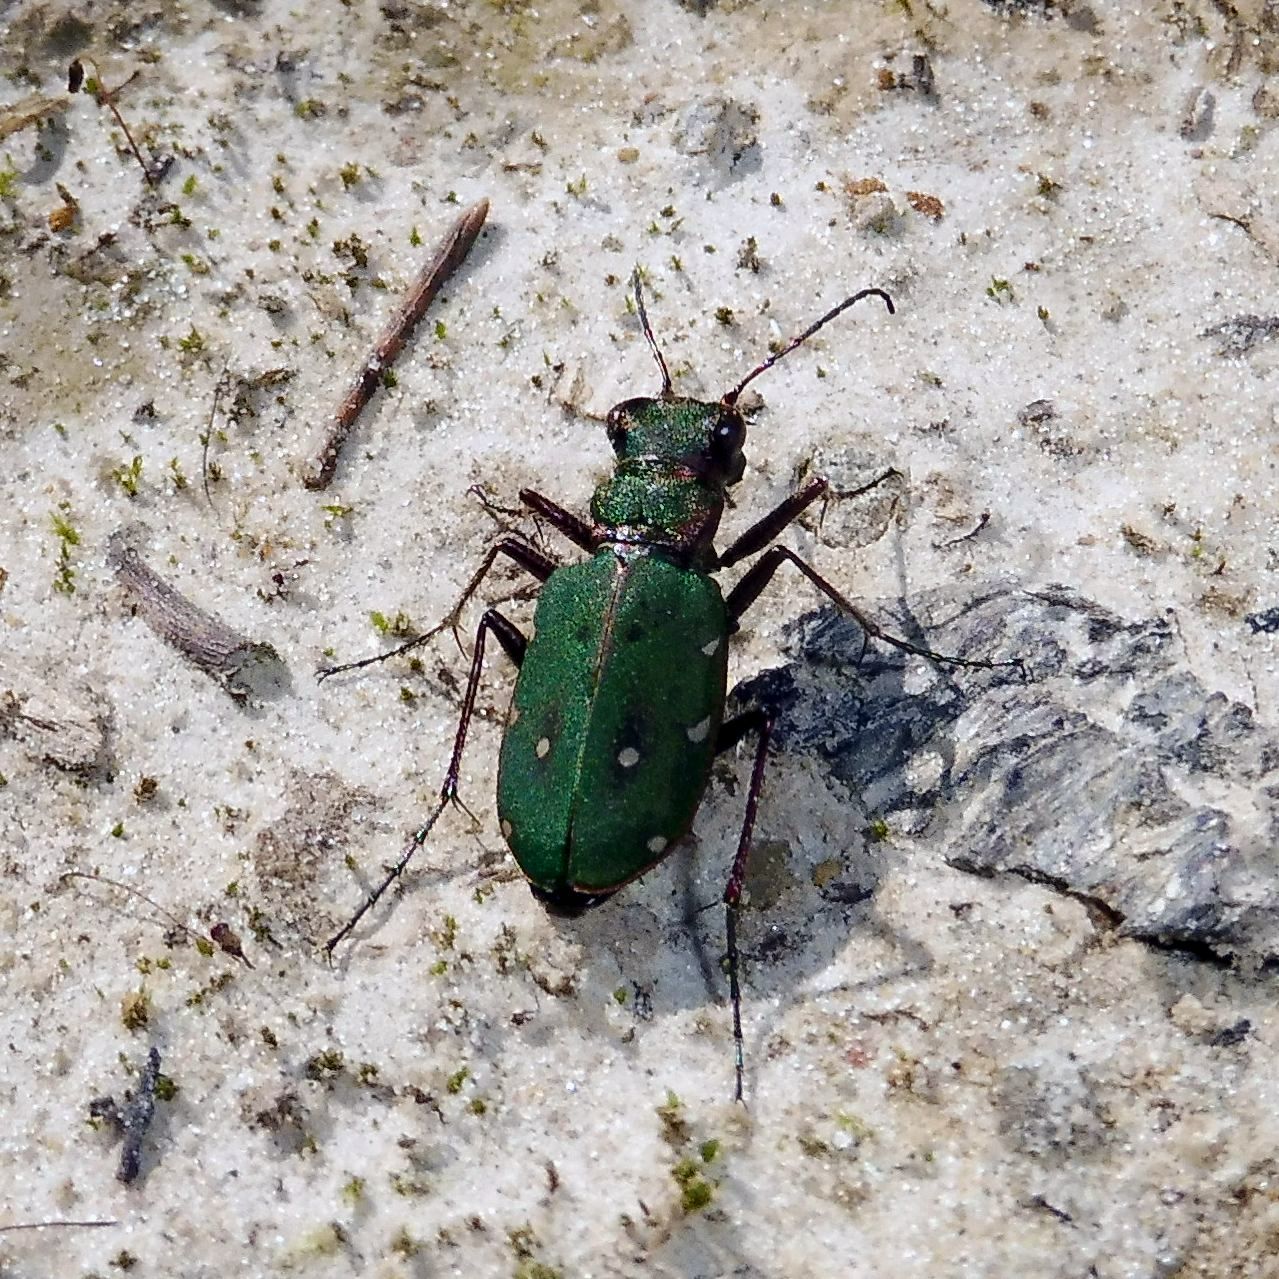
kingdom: Animalia
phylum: Arthropoda
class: Insecta
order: Coleoptera
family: Carabidae
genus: Cicindela
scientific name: Cicindela campestris
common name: Common tiger beetle
